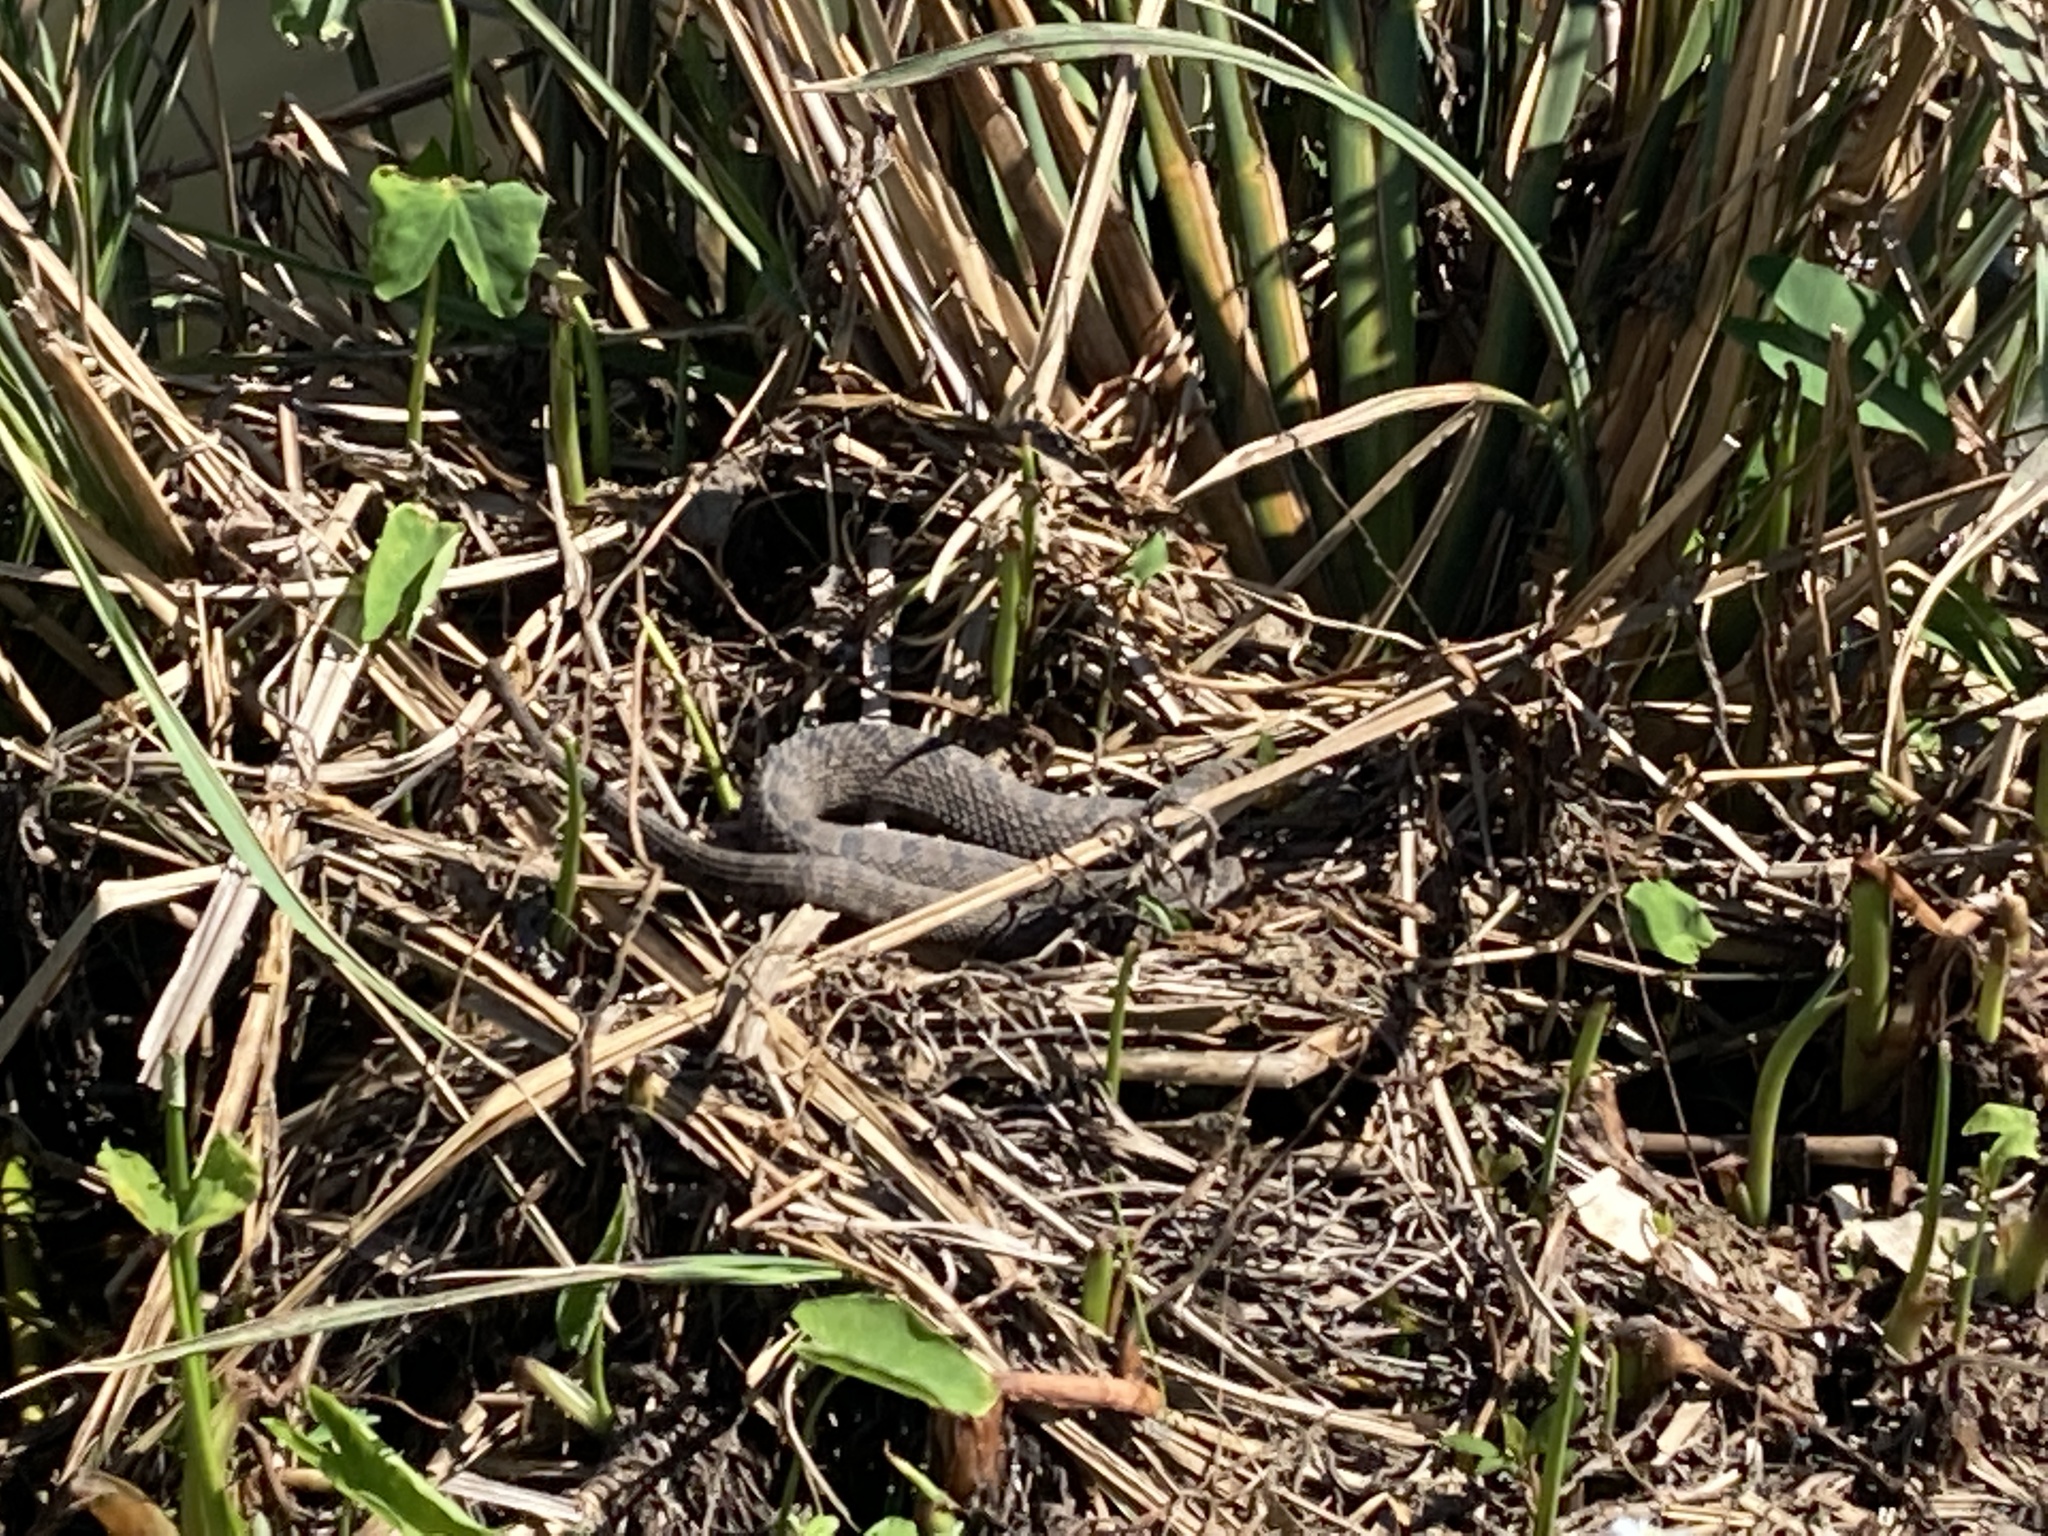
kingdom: Animalia
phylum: Chordata
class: Squamata
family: Colubridae
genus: Nerodia
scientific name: Nerodia rhombifer
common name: Diamondback water snake
